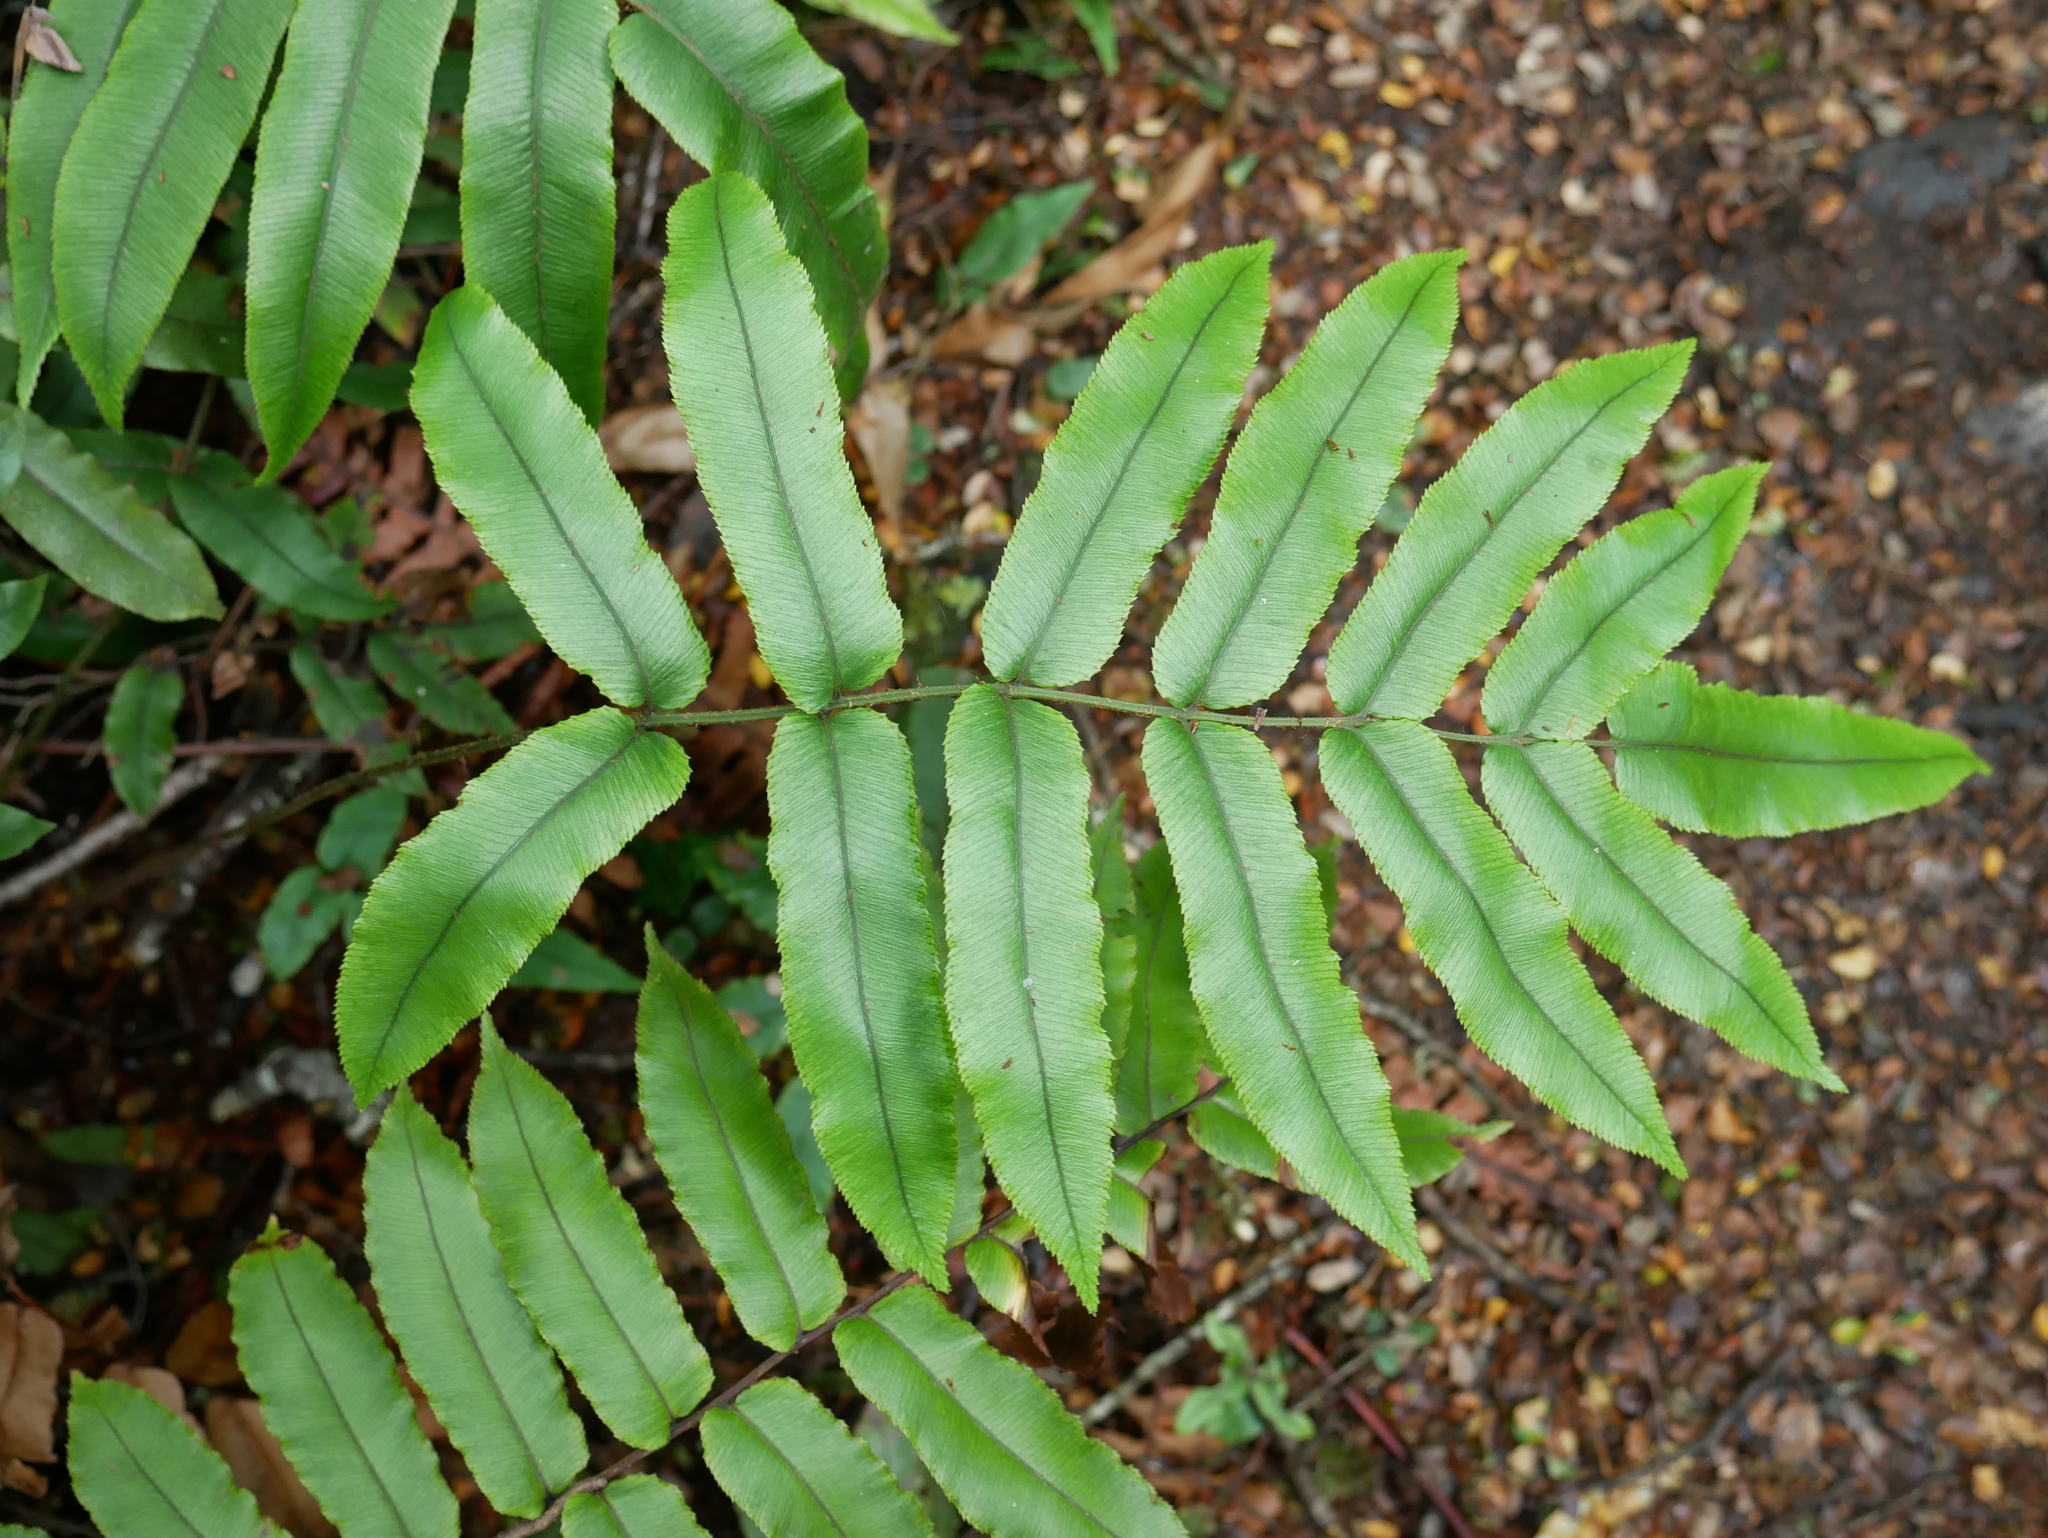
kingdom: Plantae
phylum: Tracheophyta
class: Polypodiopsida
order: Polypodiales
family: Blechnaceae
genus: Parablechnum
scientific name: Parablechnum procerum
